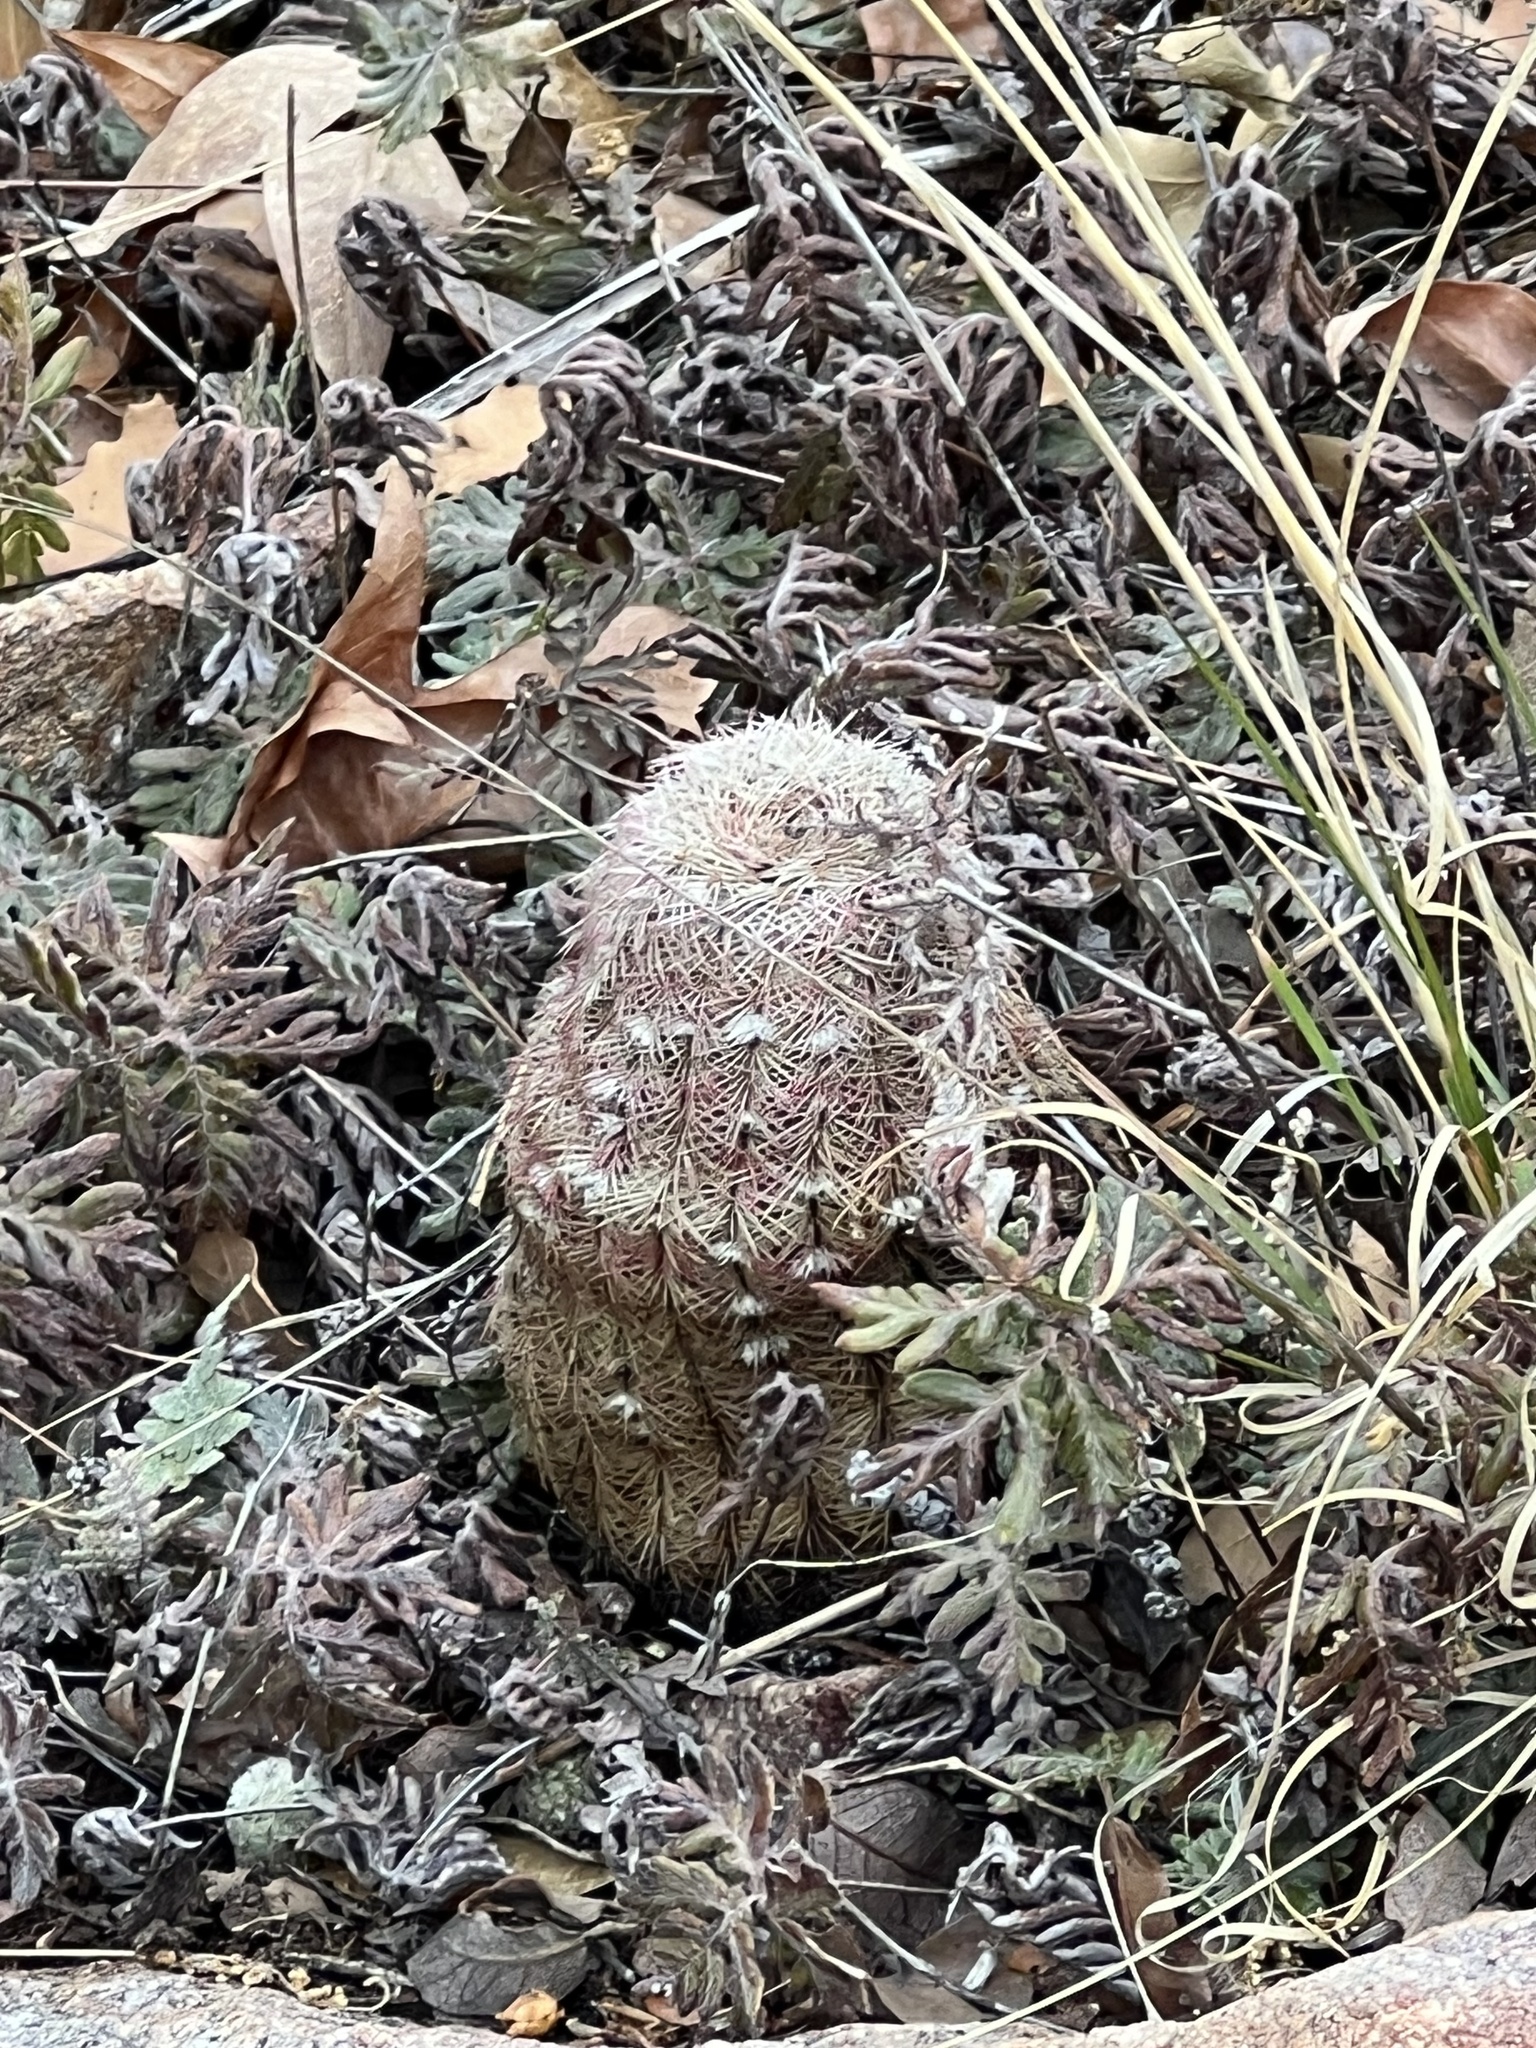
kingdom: Plantae
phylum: Tracheophyta
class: Magnoliopsida
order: Caryophyllales
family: Cactaceae
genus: Echinocereus
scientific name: Echinocereus rigidissimus
